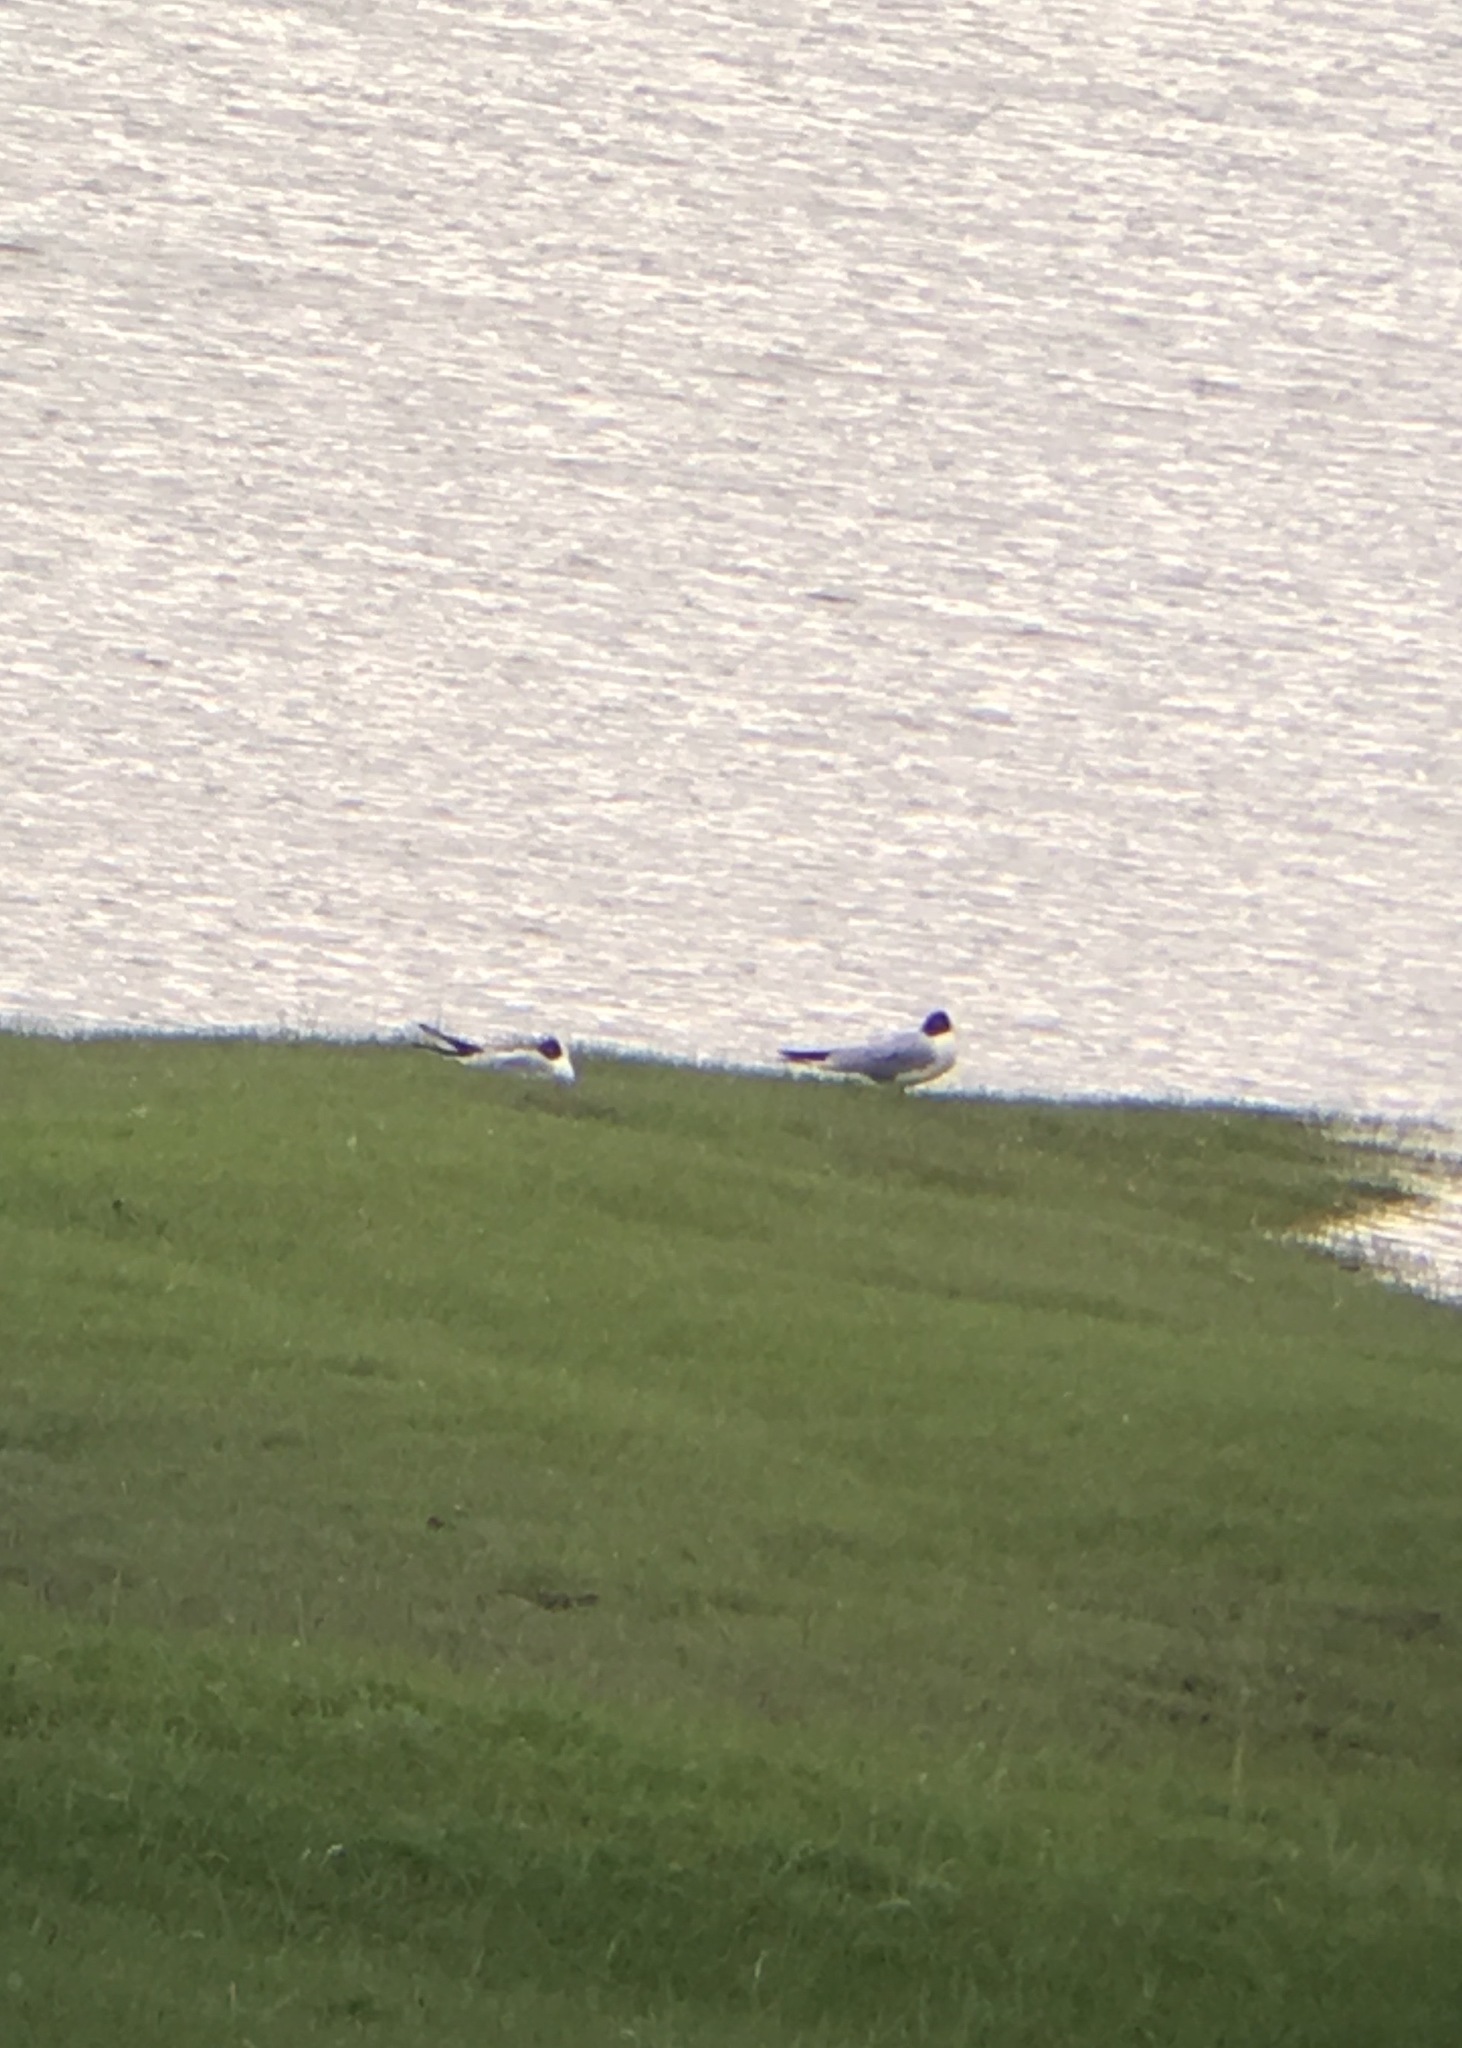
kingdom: Animalia
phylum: Chordata
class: Aves
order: Charadriiformes
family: Laridae
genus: Chroicocephalus
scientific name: Chroicocephalus ridibundus
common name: Black-headed gull
